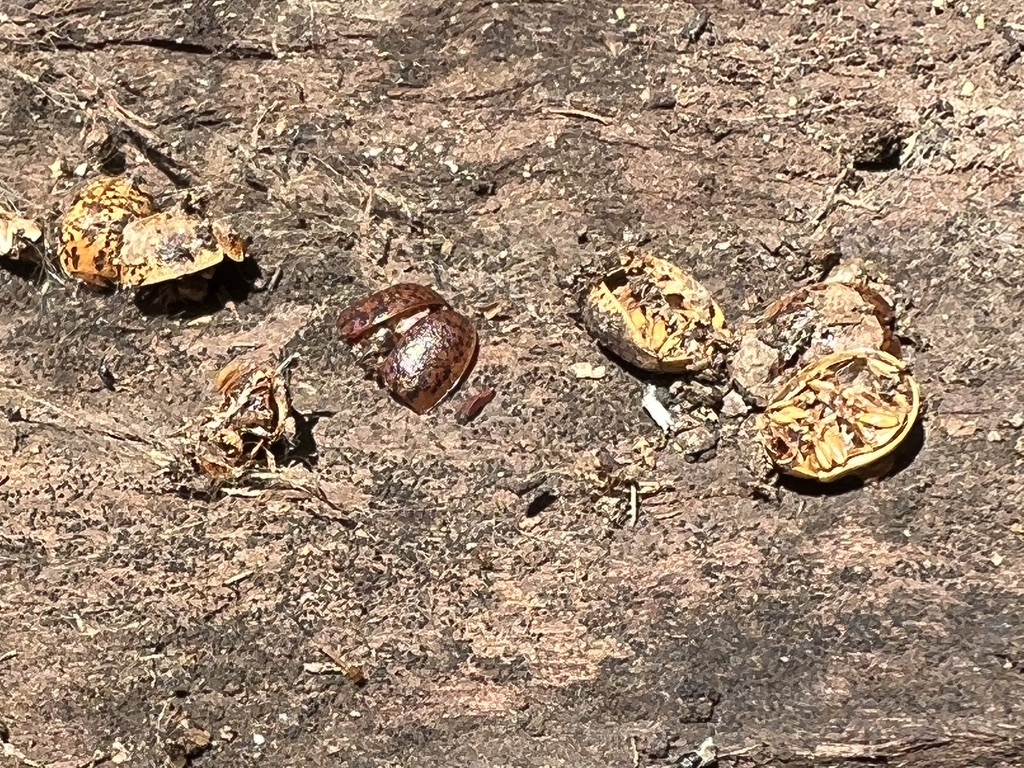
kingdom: Animalia
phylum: Arthropoda
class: Insecta
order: Coleoptera
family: Chrysomelidae
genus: Trachymela
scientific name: Trachymela sloanei
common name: Australian tortoise beetle
